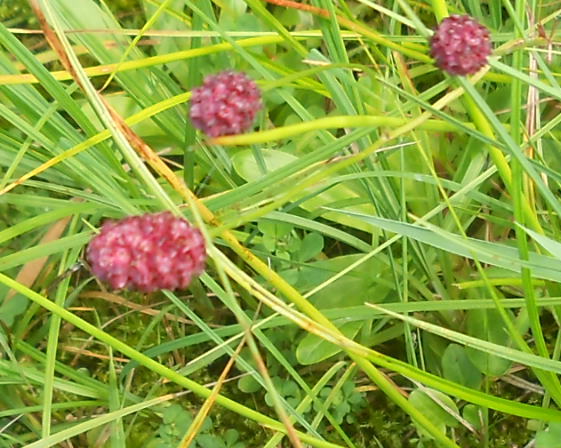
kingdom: Plantae
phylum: Tracheophyta
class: Magnoliopsida
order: Rosales
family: Rosaceae
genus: Sanguisorba
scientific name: Sanguisorba officinalis
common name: Great burnet
